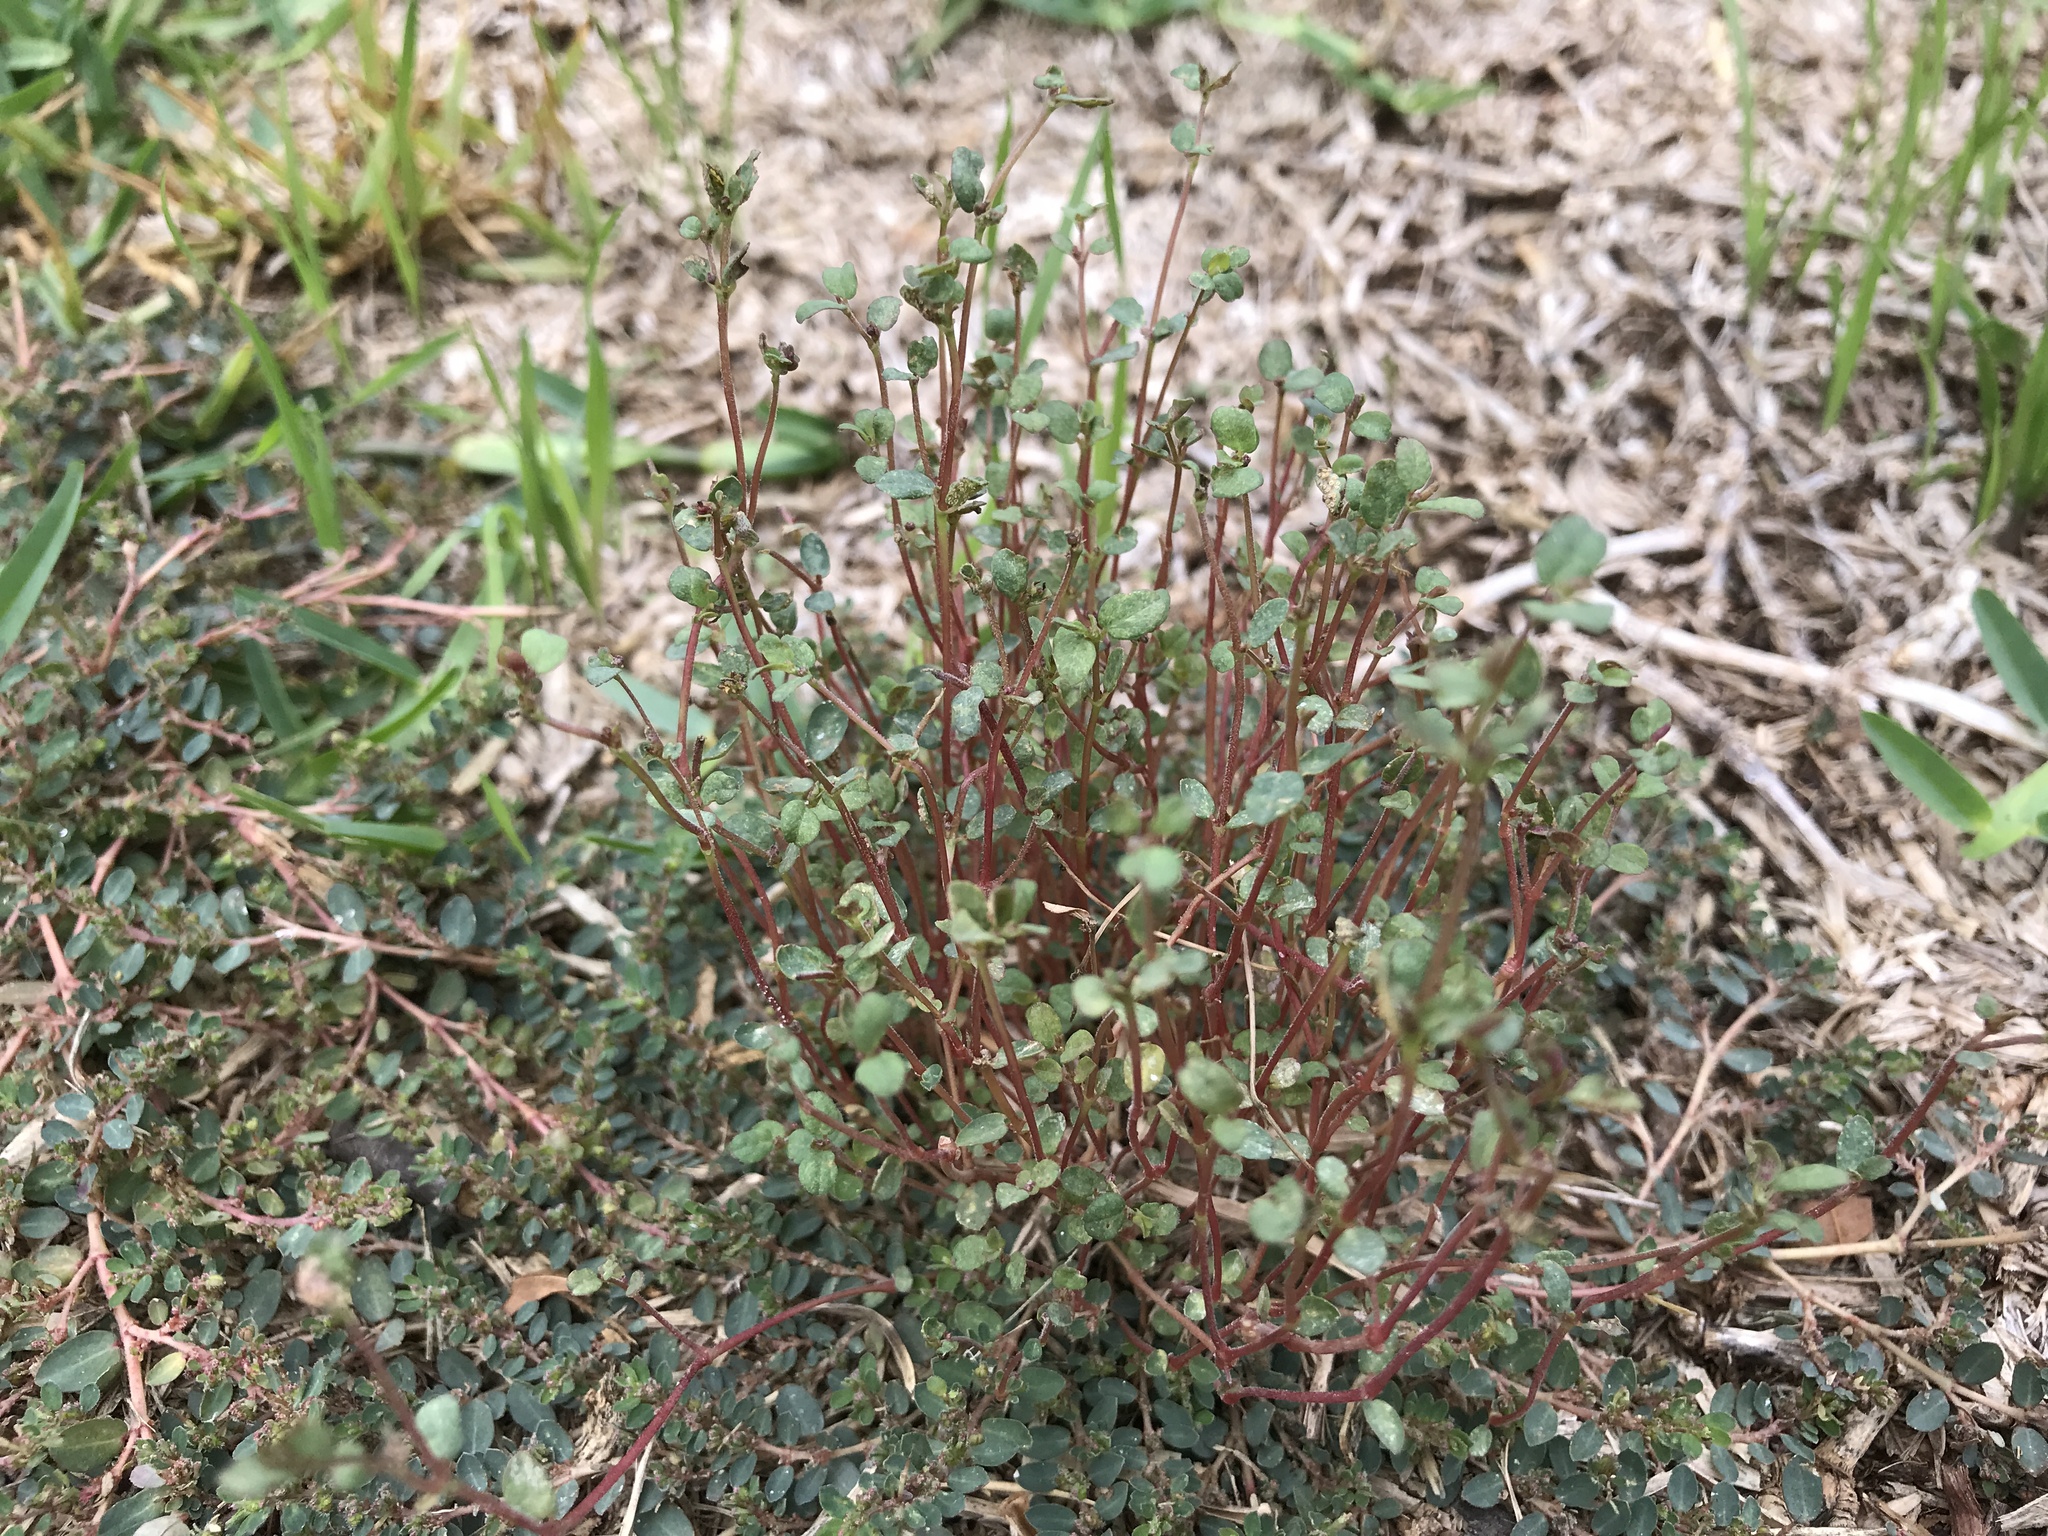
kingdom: Fungi
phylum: Basidiomycota
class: Pucciniomycetes
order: Pucciniales
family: Pucciniaceae
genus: Uromyces
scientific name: Uromyces proeminens
